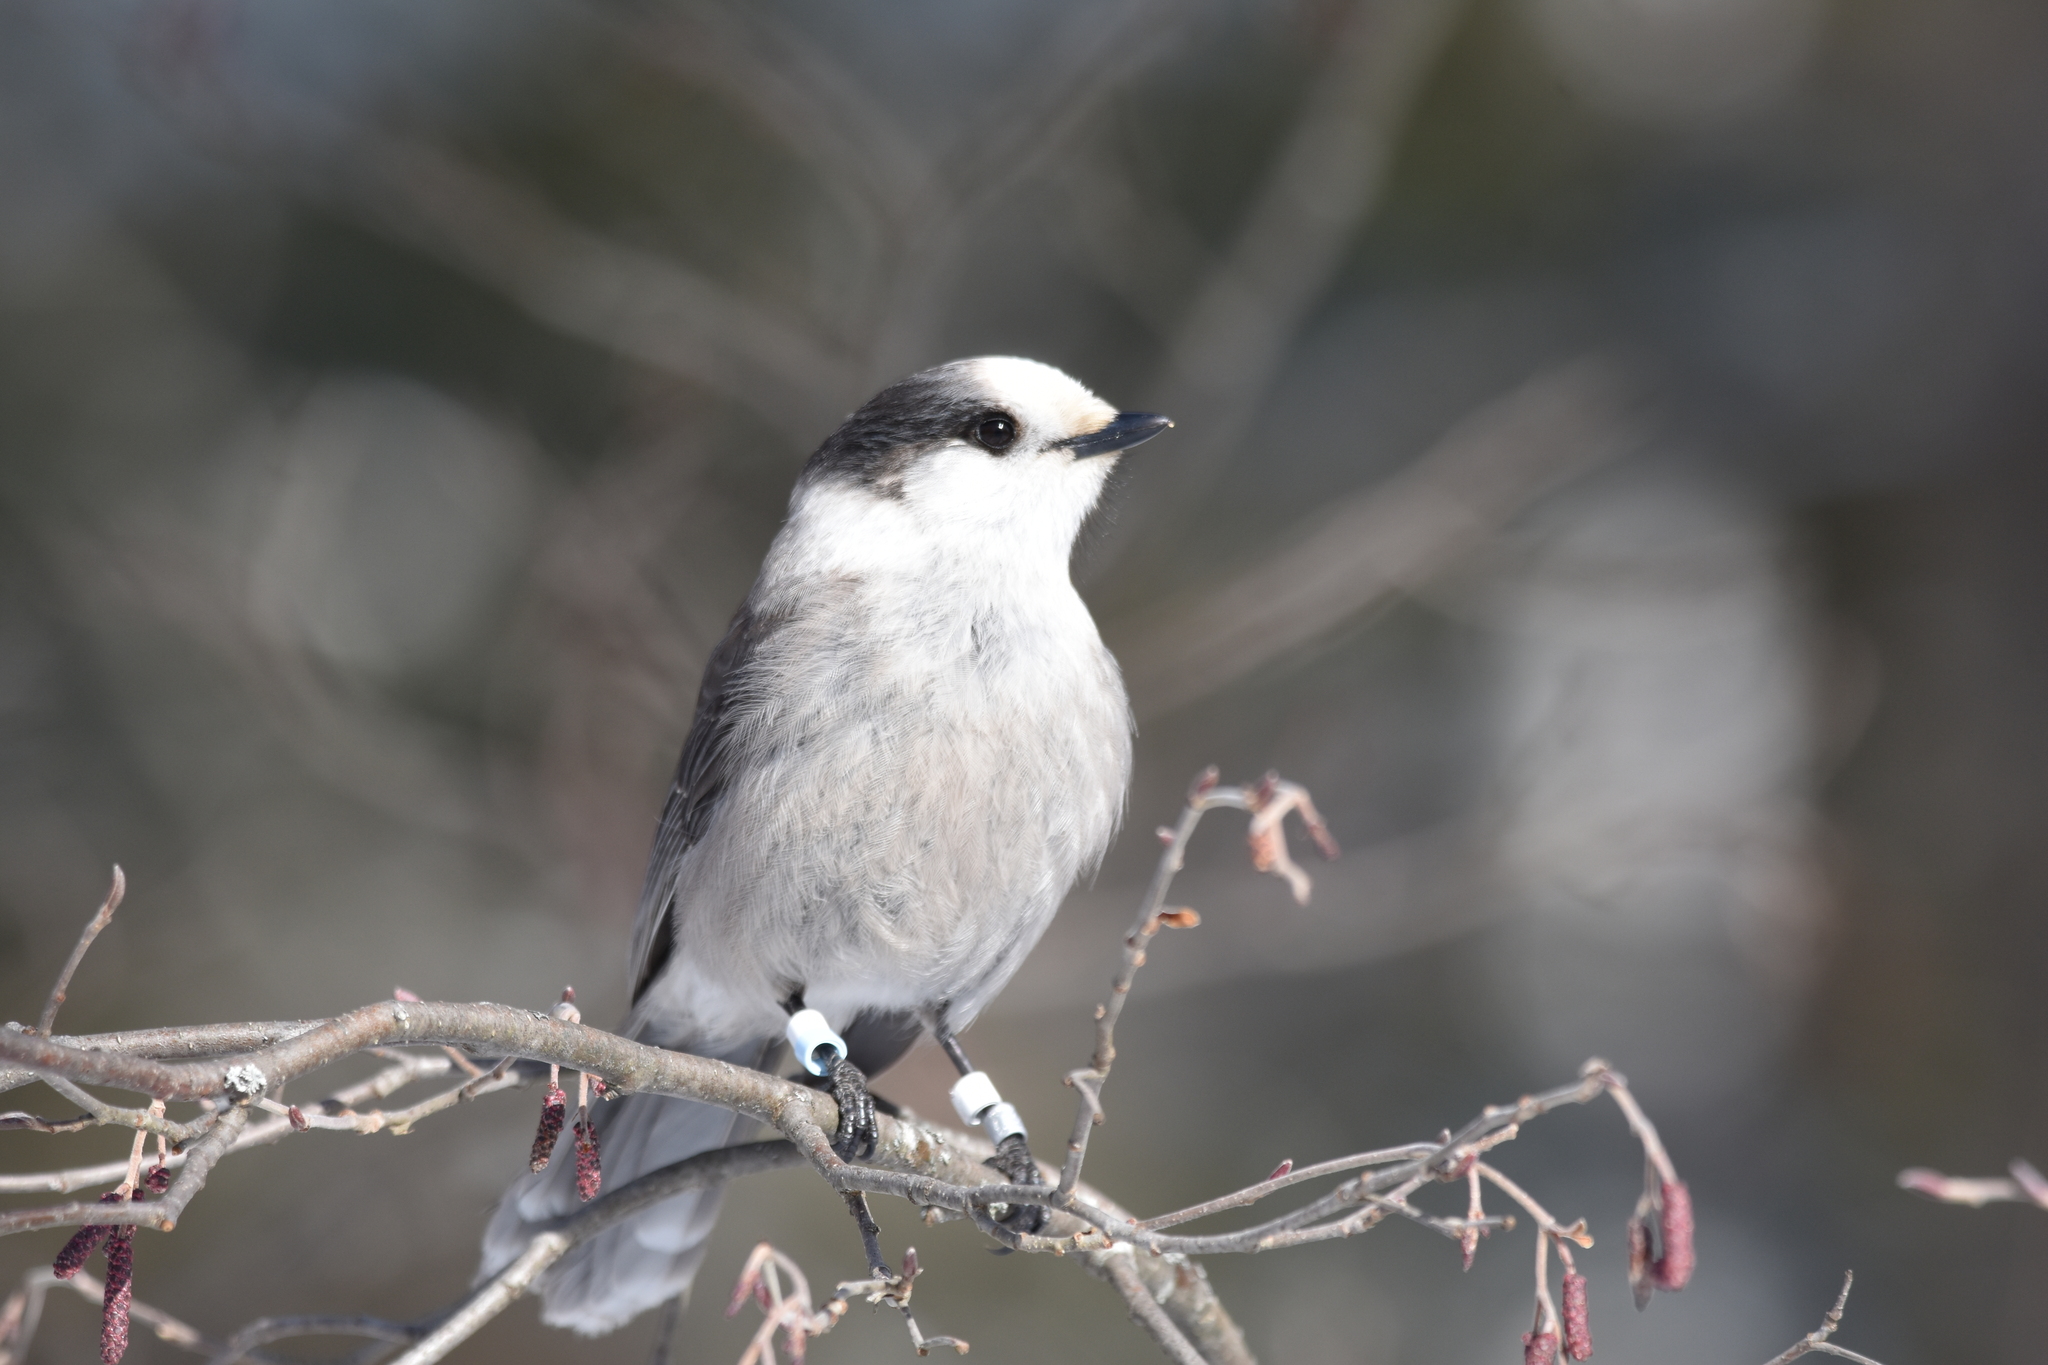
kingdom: Animalia
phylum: Chordata
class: Aves
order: Passeriformes
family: Corvidae
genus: Perisoreus
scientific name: Perisoreus canadensis
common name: Gray jay
